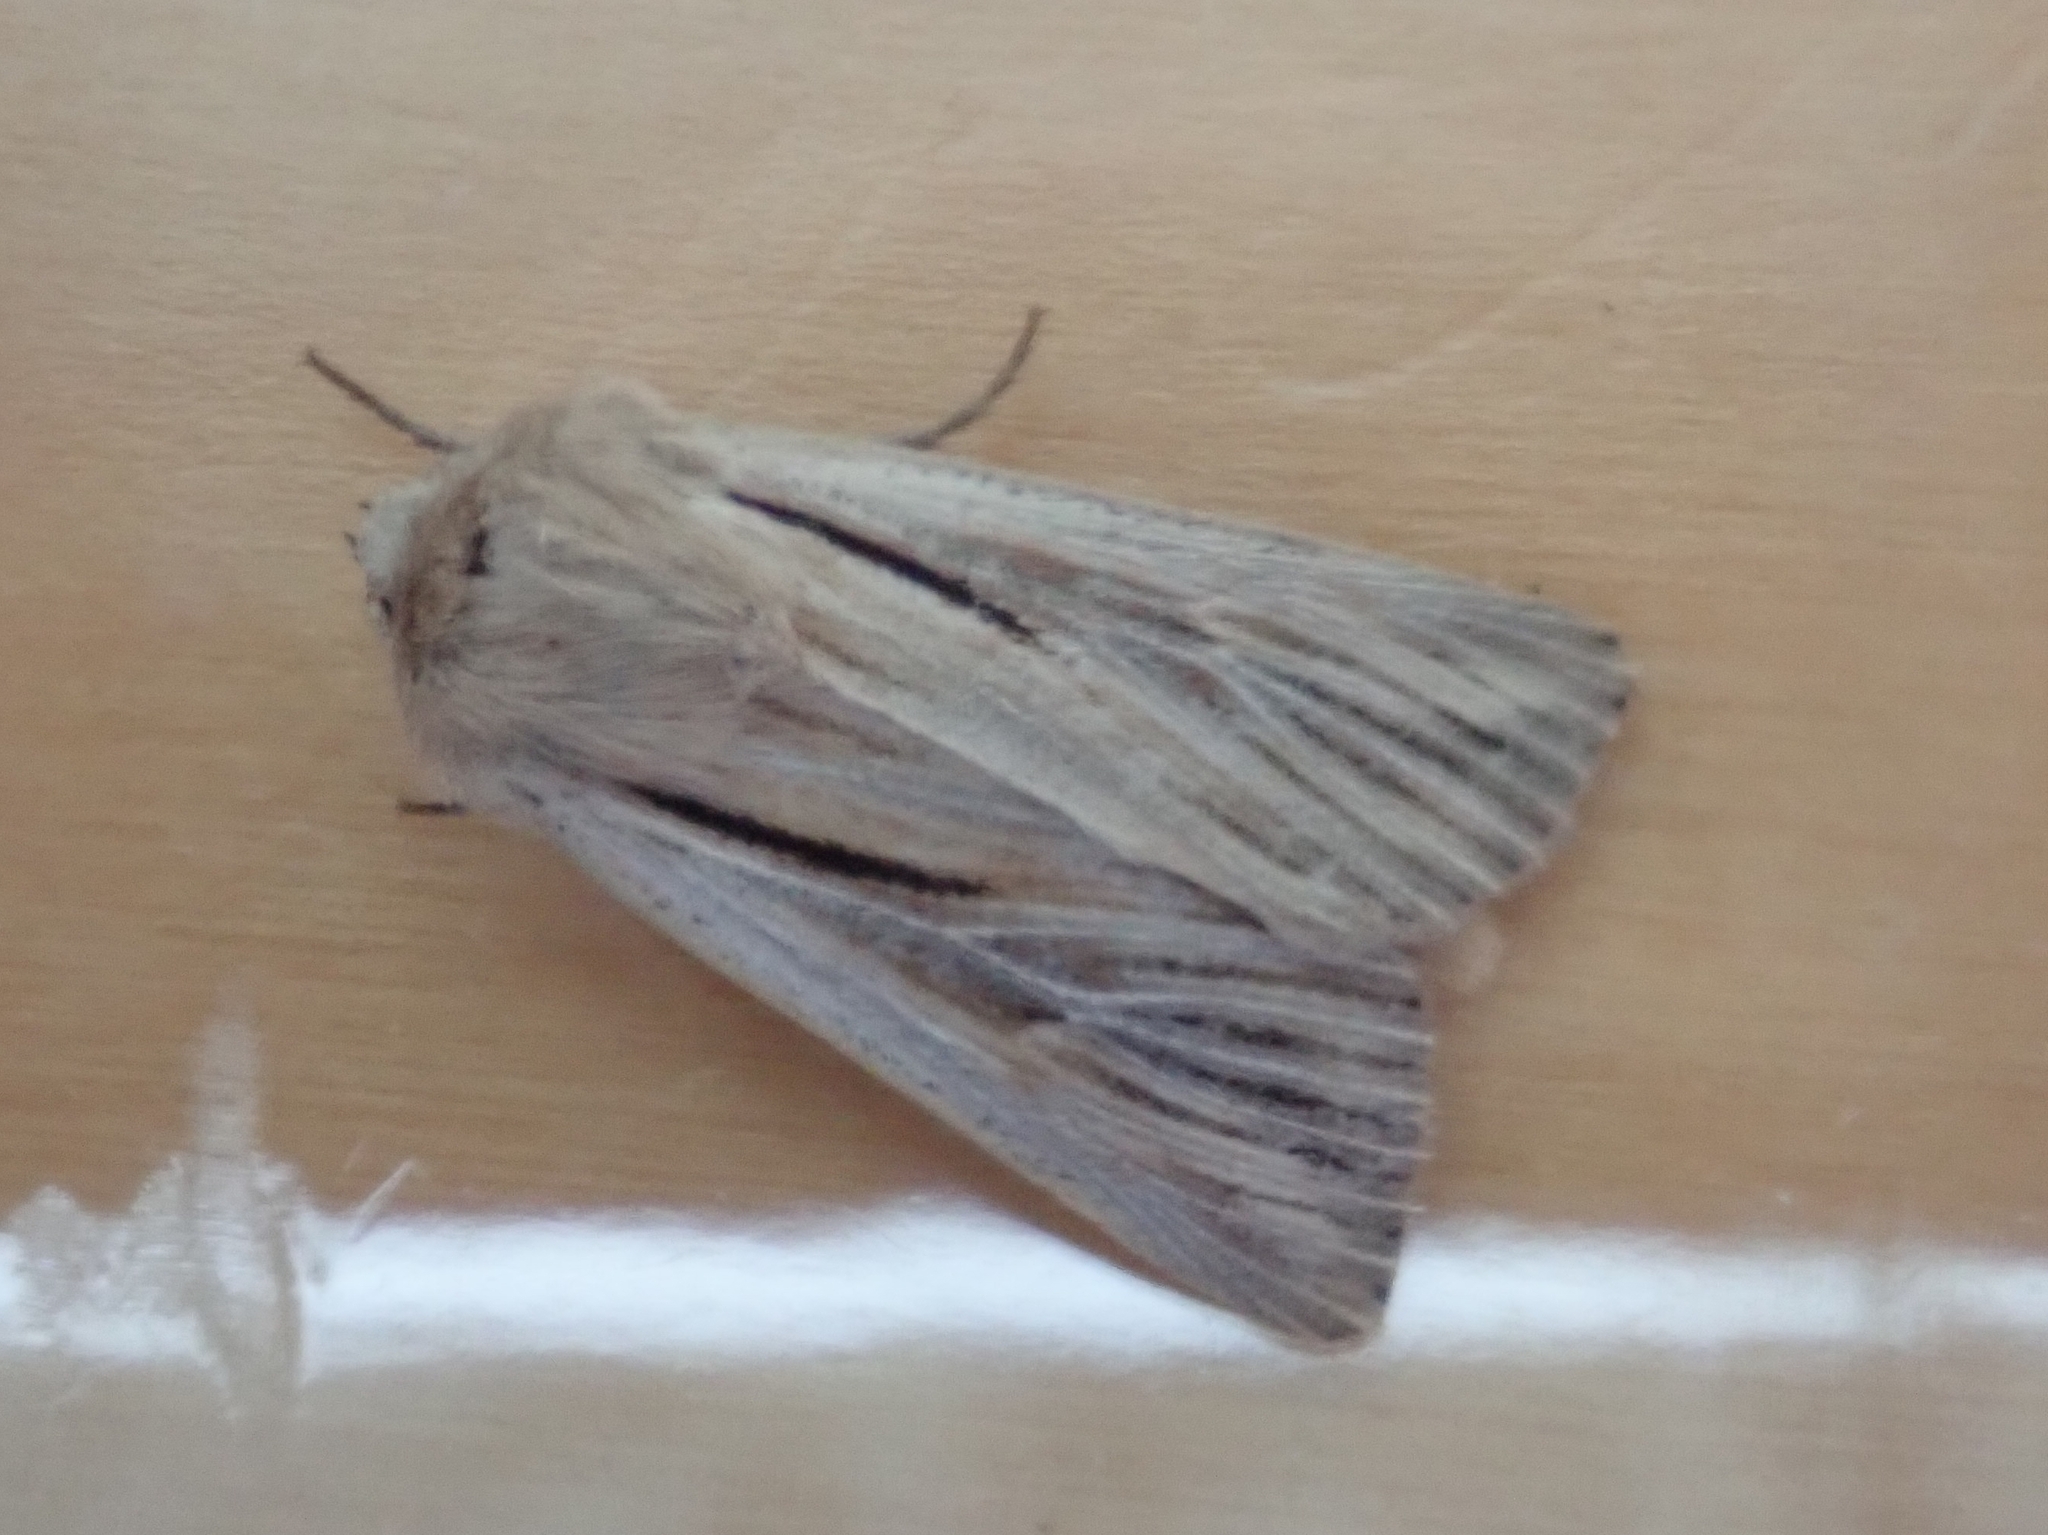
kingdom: Animalia
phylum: Arthropoda
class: Insecta
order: Lepidoptera
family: Noctuidae
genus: Leucania
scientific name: Leucania comma
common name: Shoulder-striped wainscot
